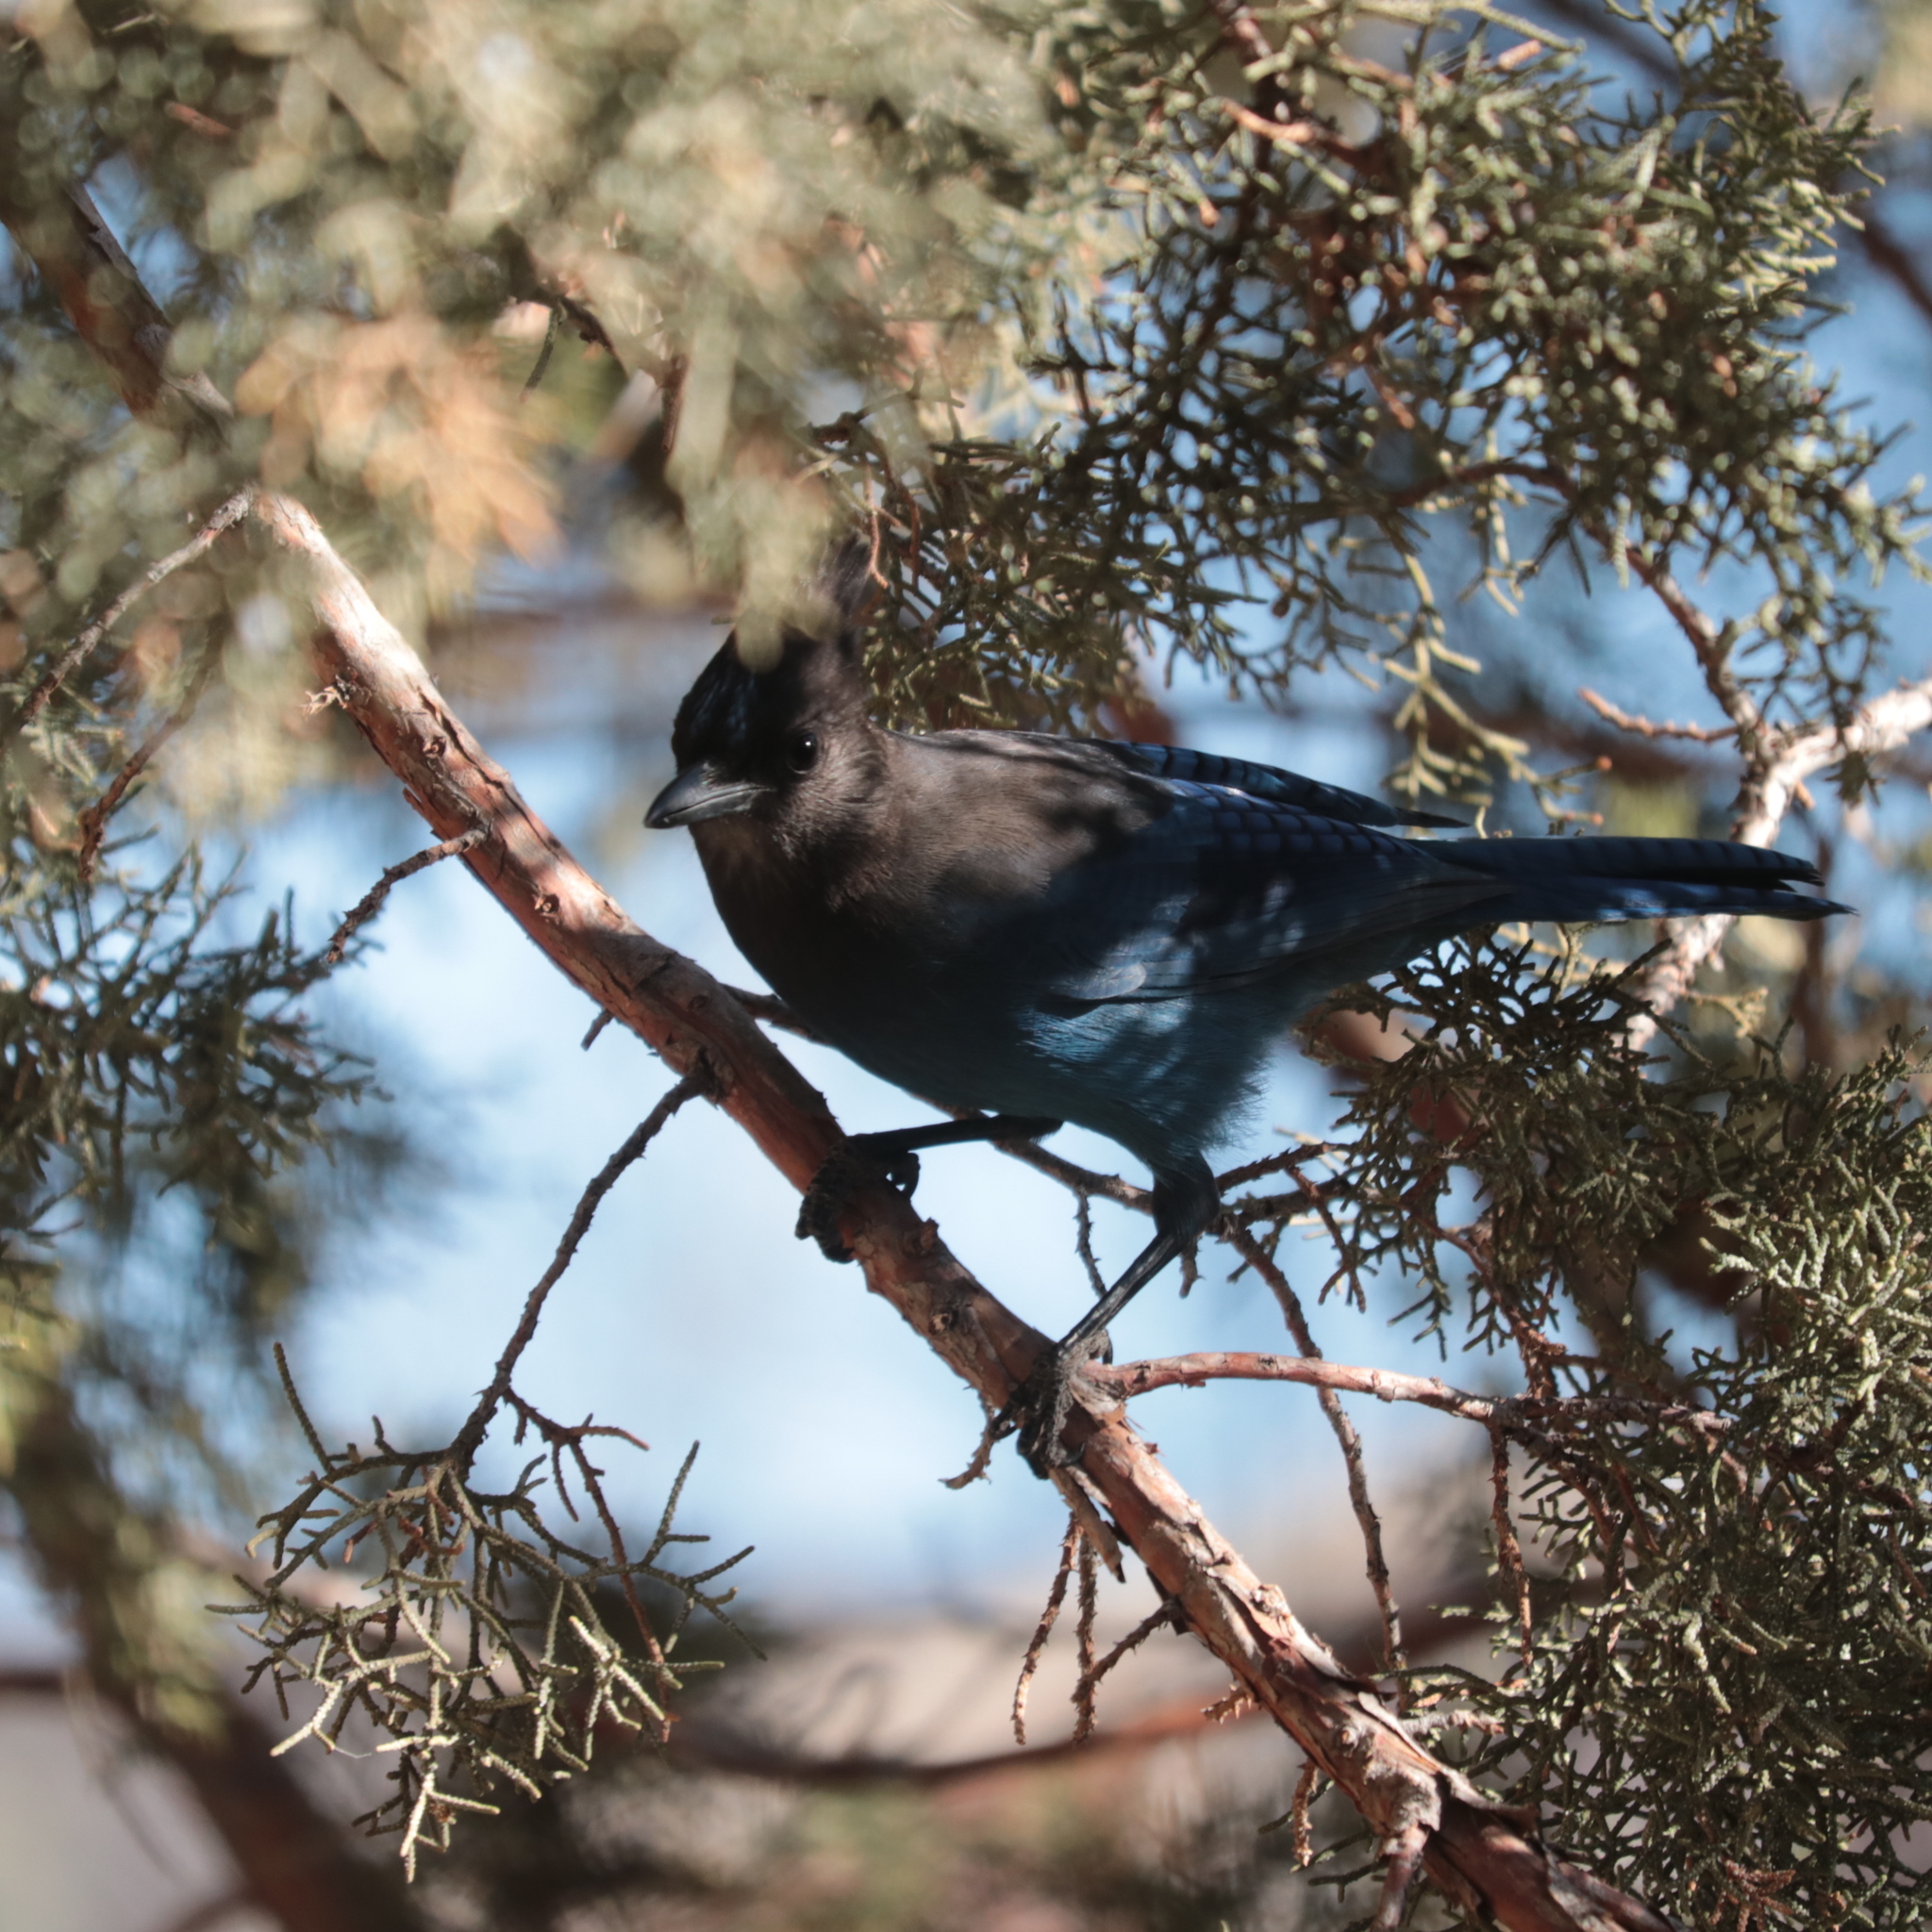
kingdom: Animalia
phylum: Chordata
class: Aves
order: Passeriformes
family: Corvidae
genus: Cyanocitta
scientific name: Cyanocitta stelleri
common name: Steller's jay
